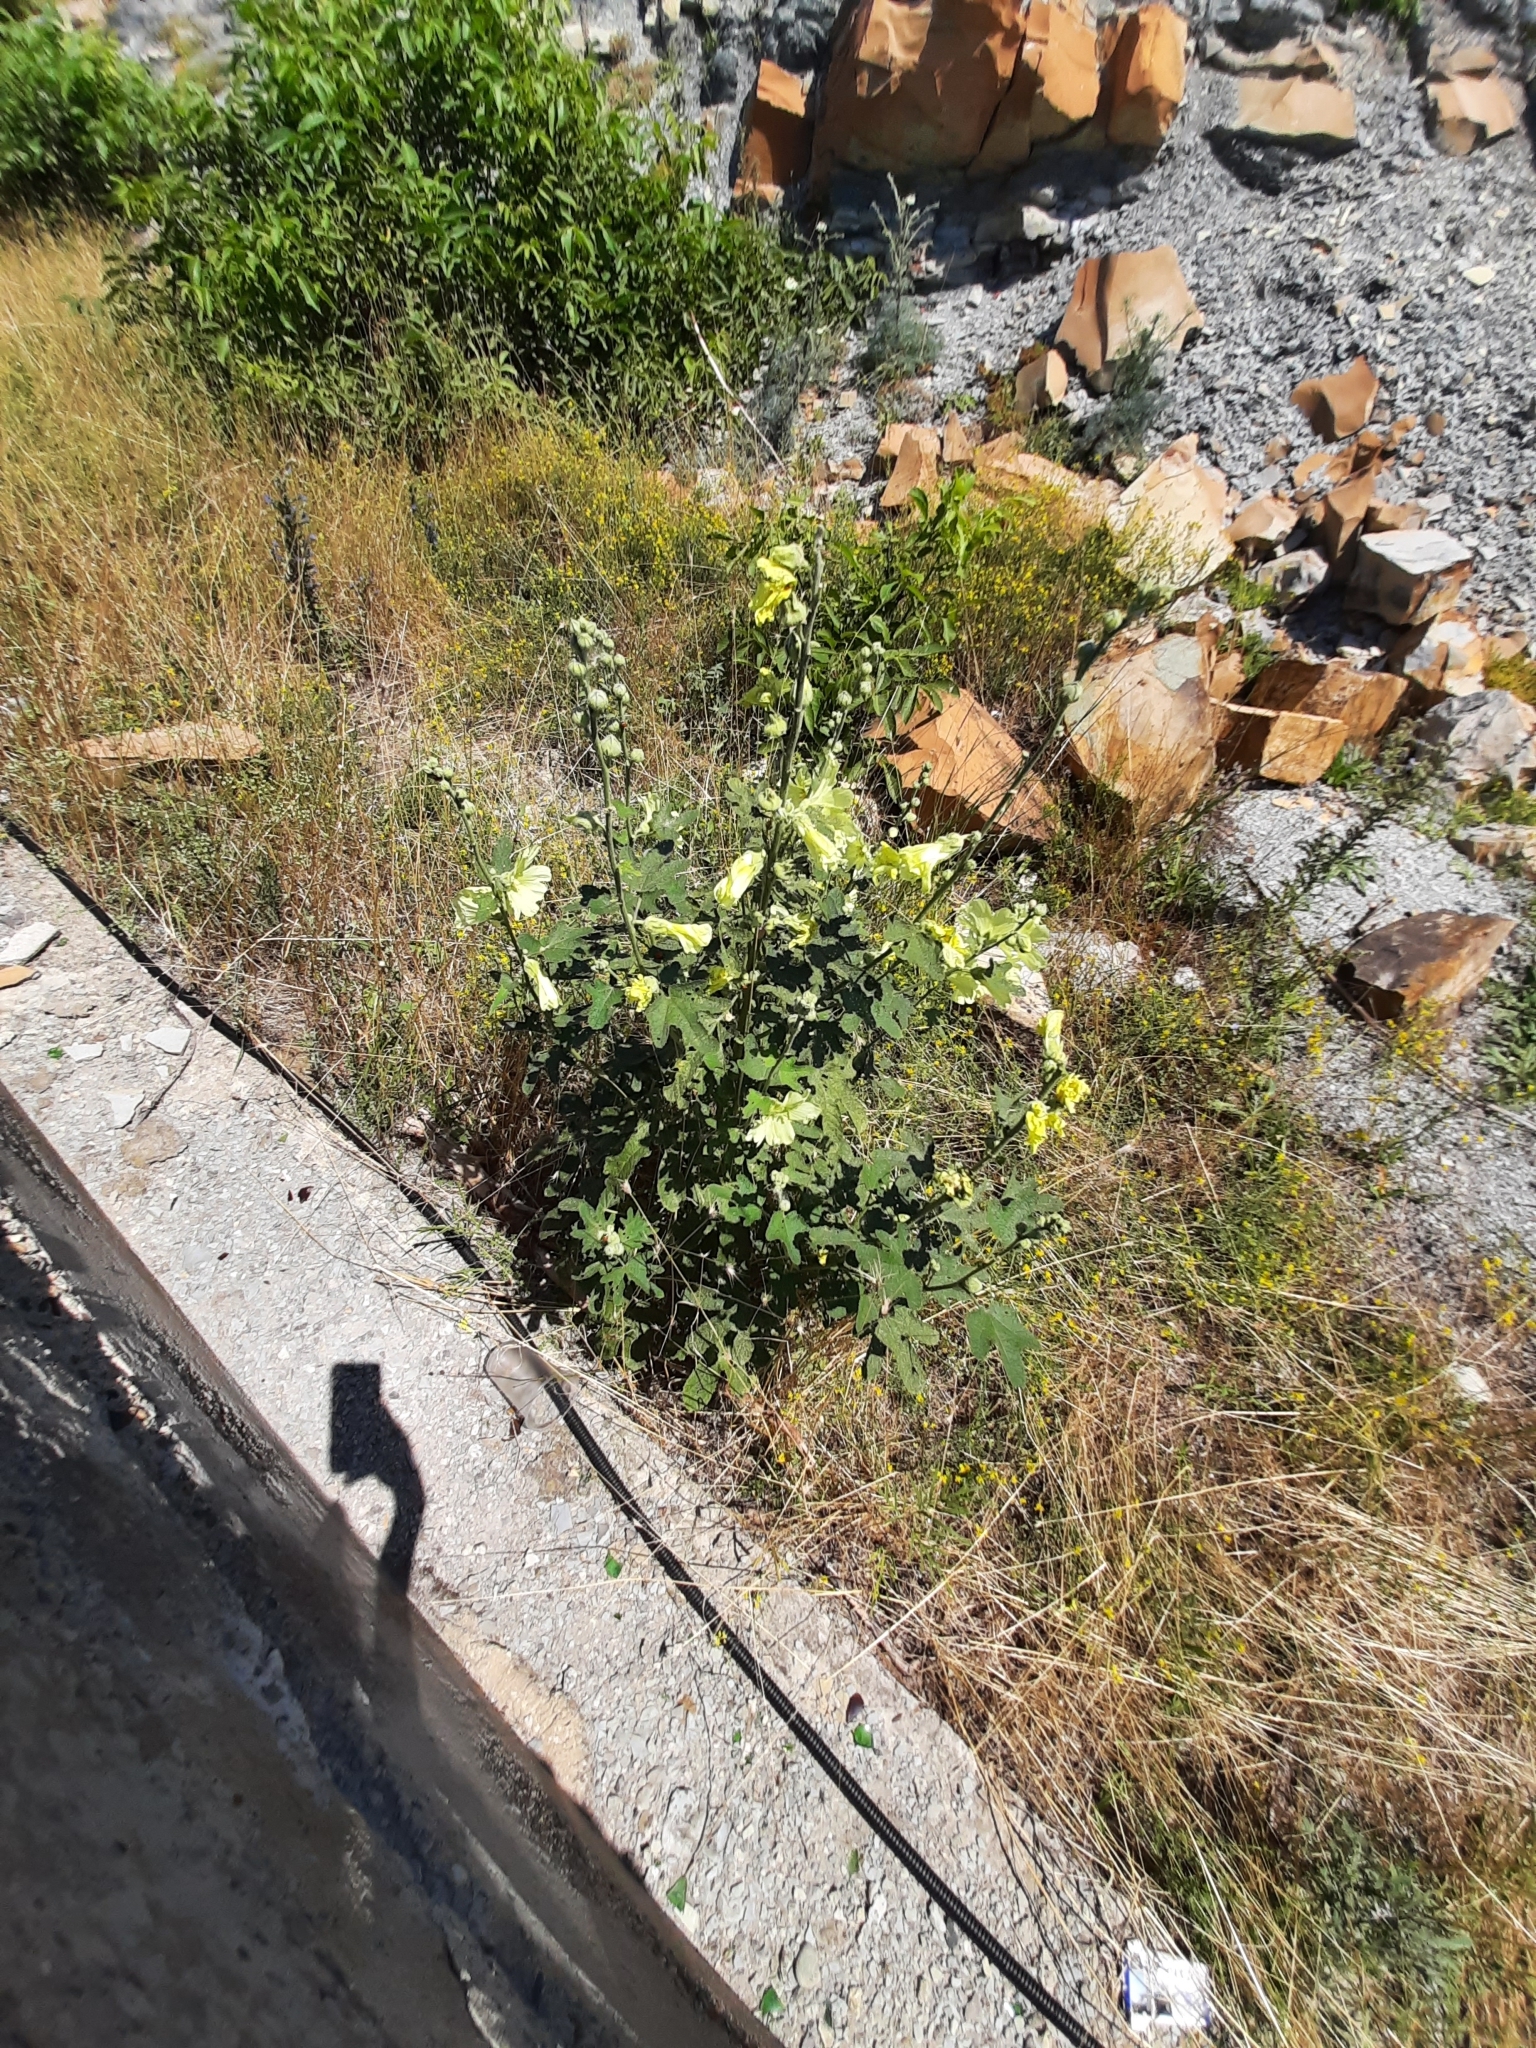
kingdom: Plantae
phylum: Tracheophyta
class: Magnoliopsida
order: Malvales
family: Malvaceae
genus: Alcea
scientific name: Alcea rugosa
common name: Russian hollyhock
